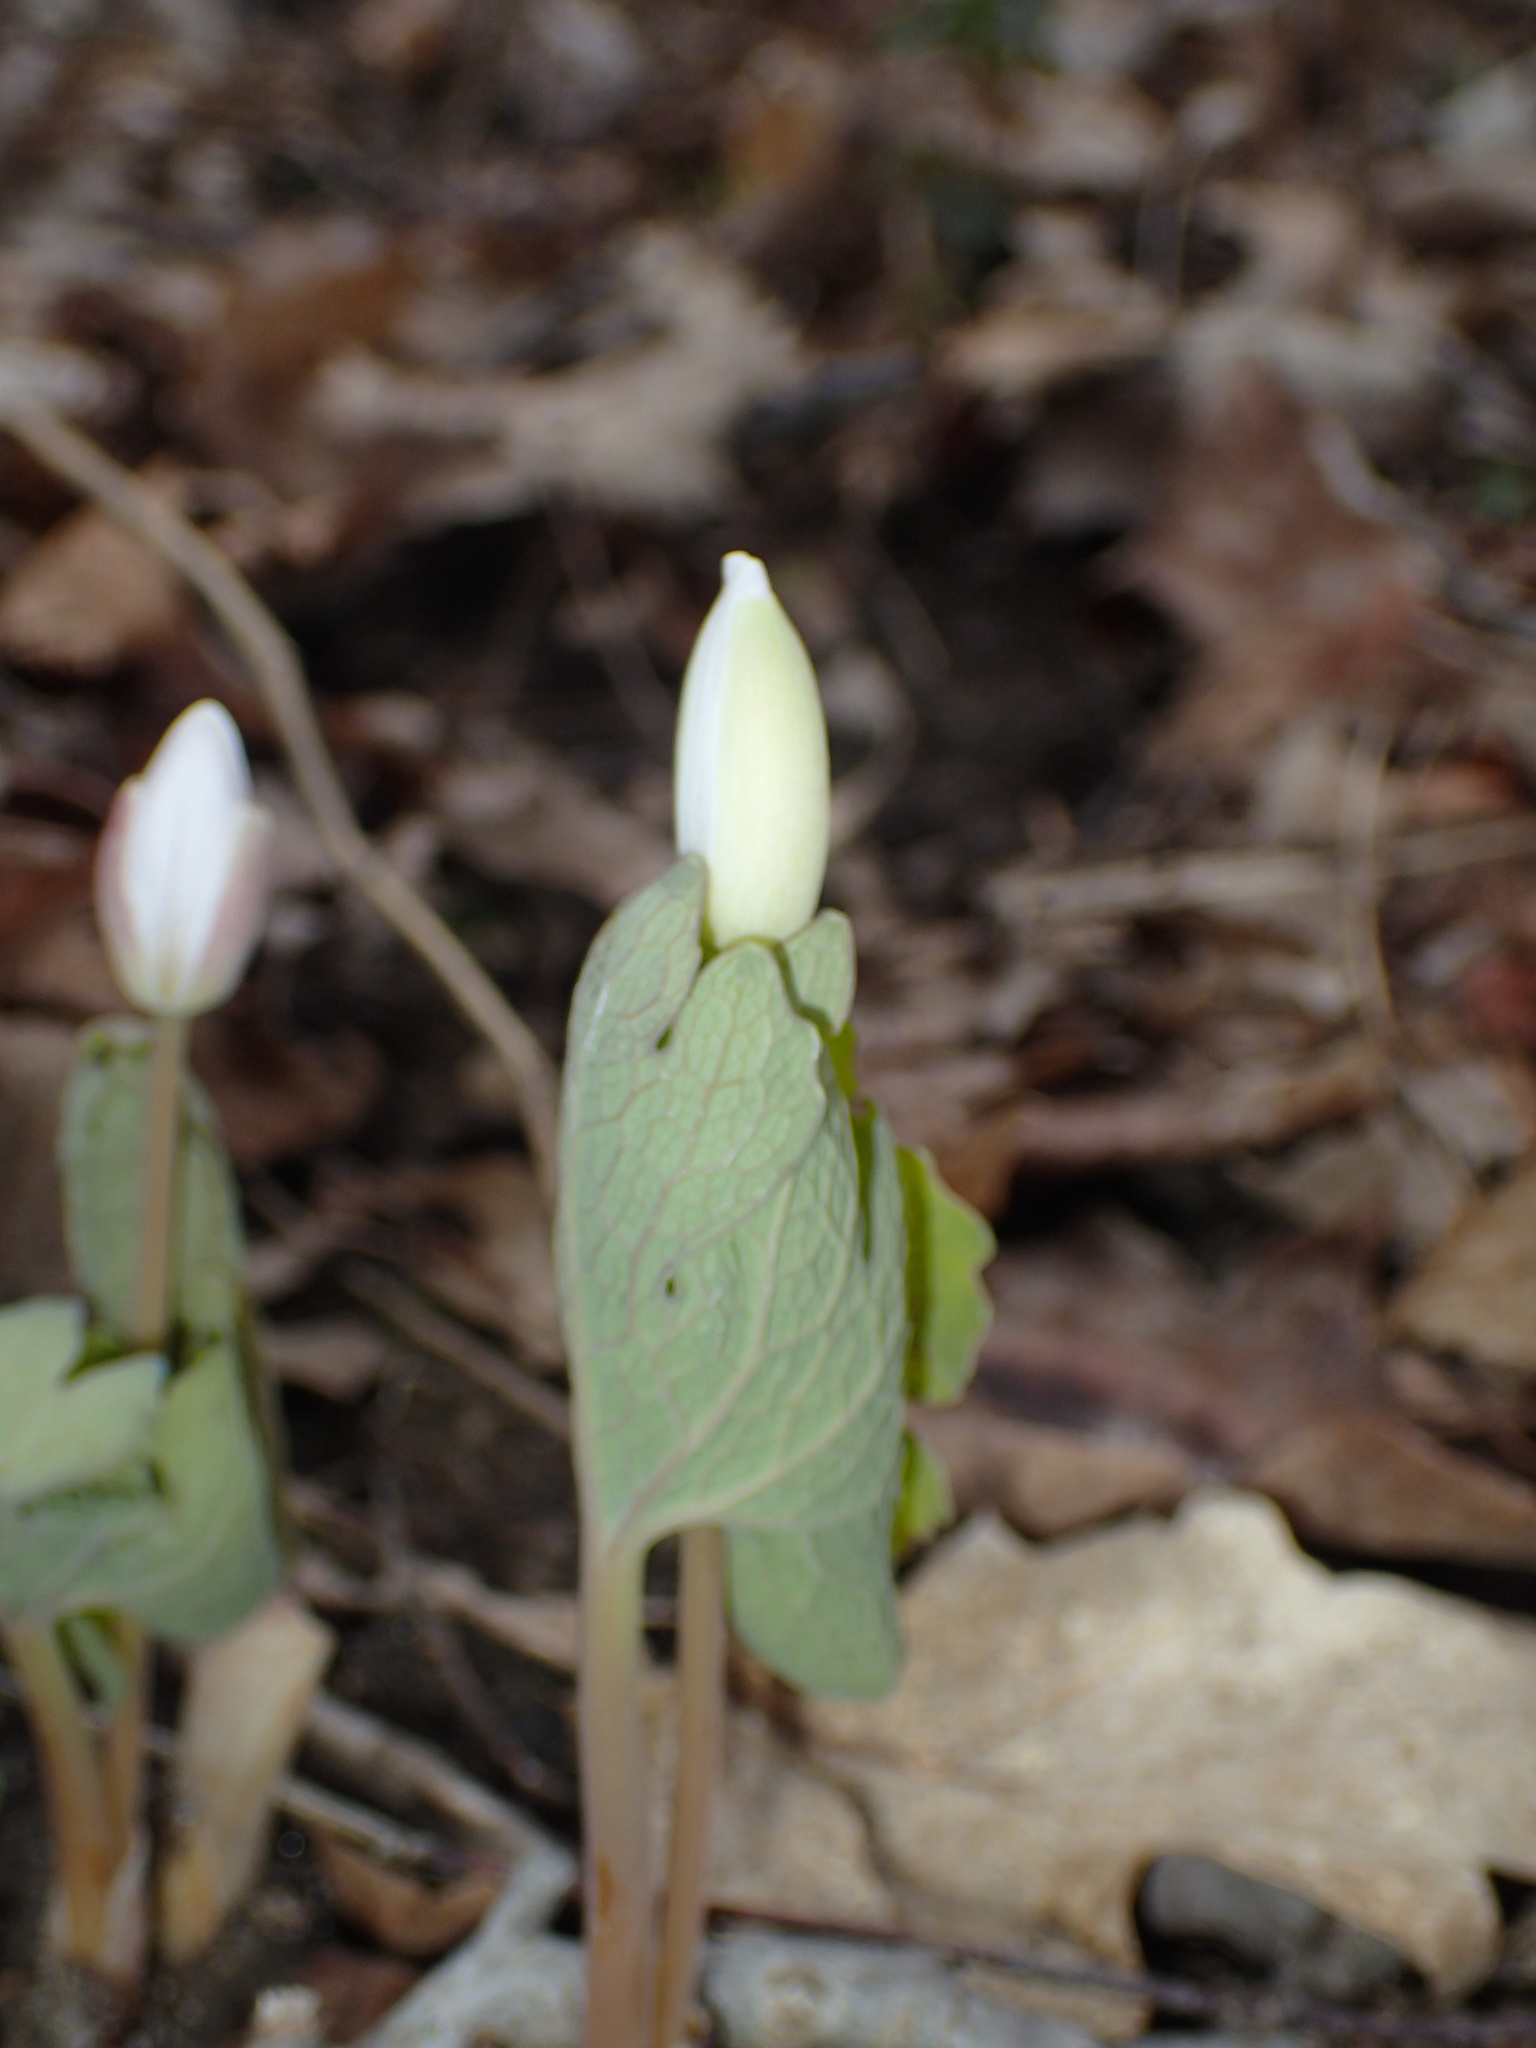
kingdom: Plantae
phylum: Tracheophyta
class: Magnoliopsida
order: Ranunculales
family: Papaveraceae
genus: Sanguinaria
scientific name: Sanguinaria canadensis
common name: Bloodroot
